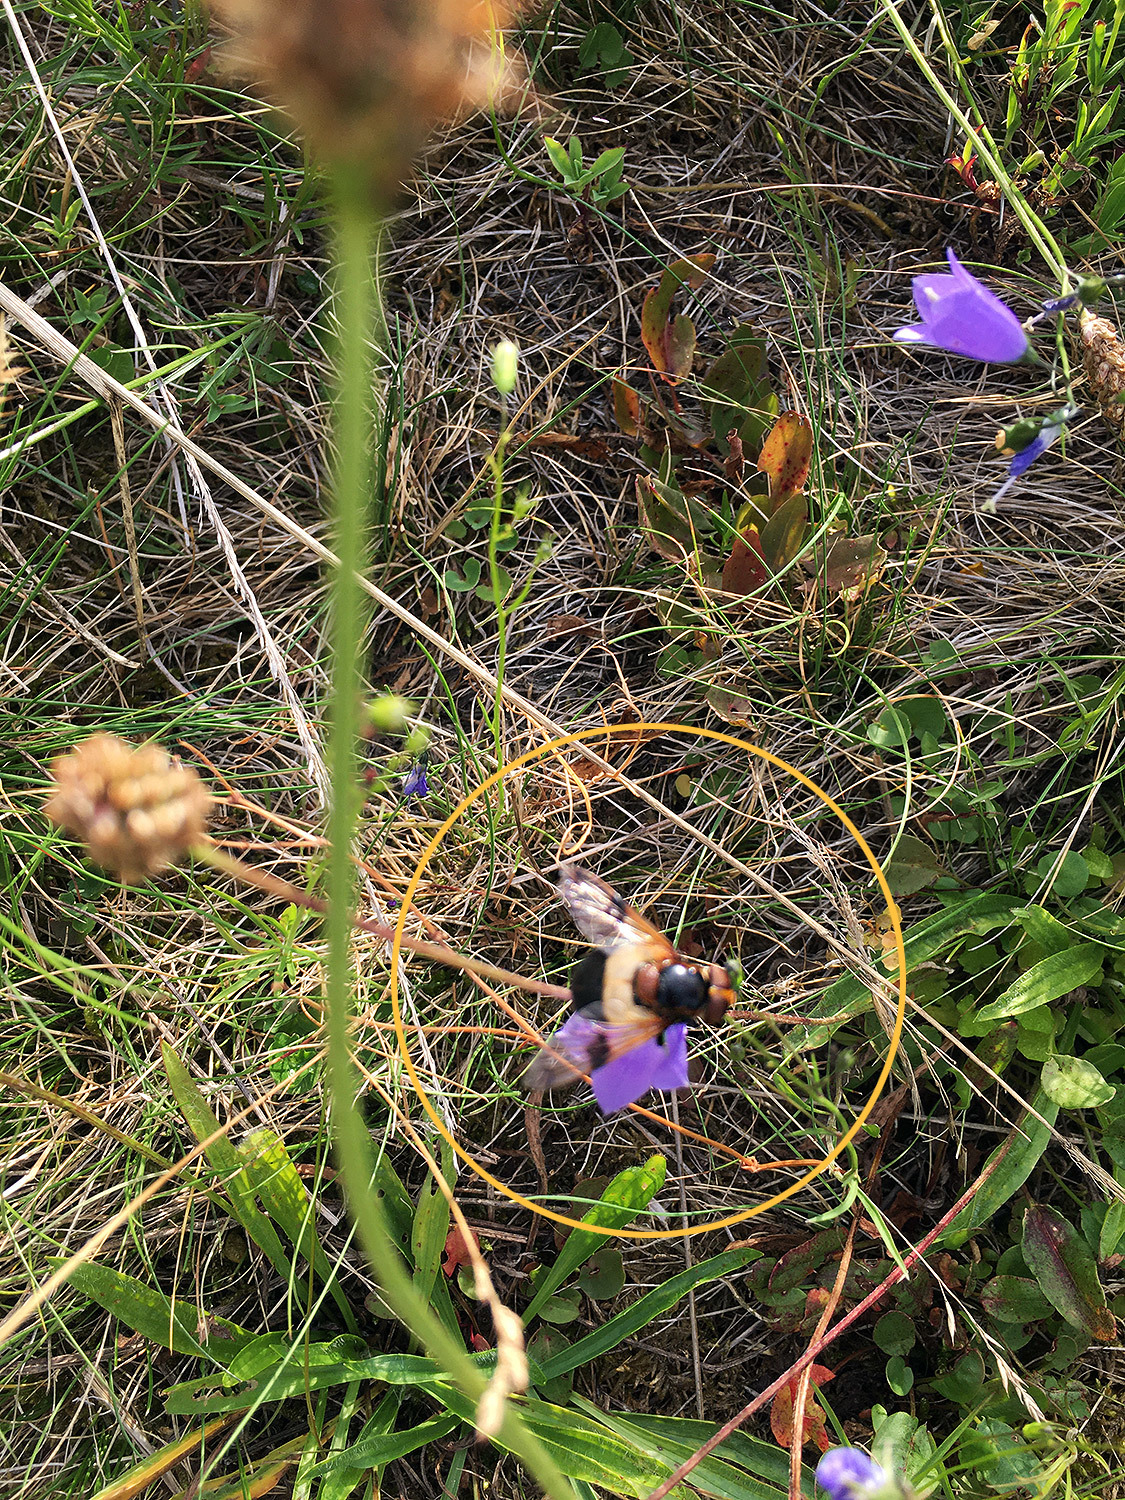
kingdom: Animalia
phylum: Arthropoda
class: Insecta
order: Diptera
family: Syrphidae
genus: Volucella
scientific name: Volucella pellucens
